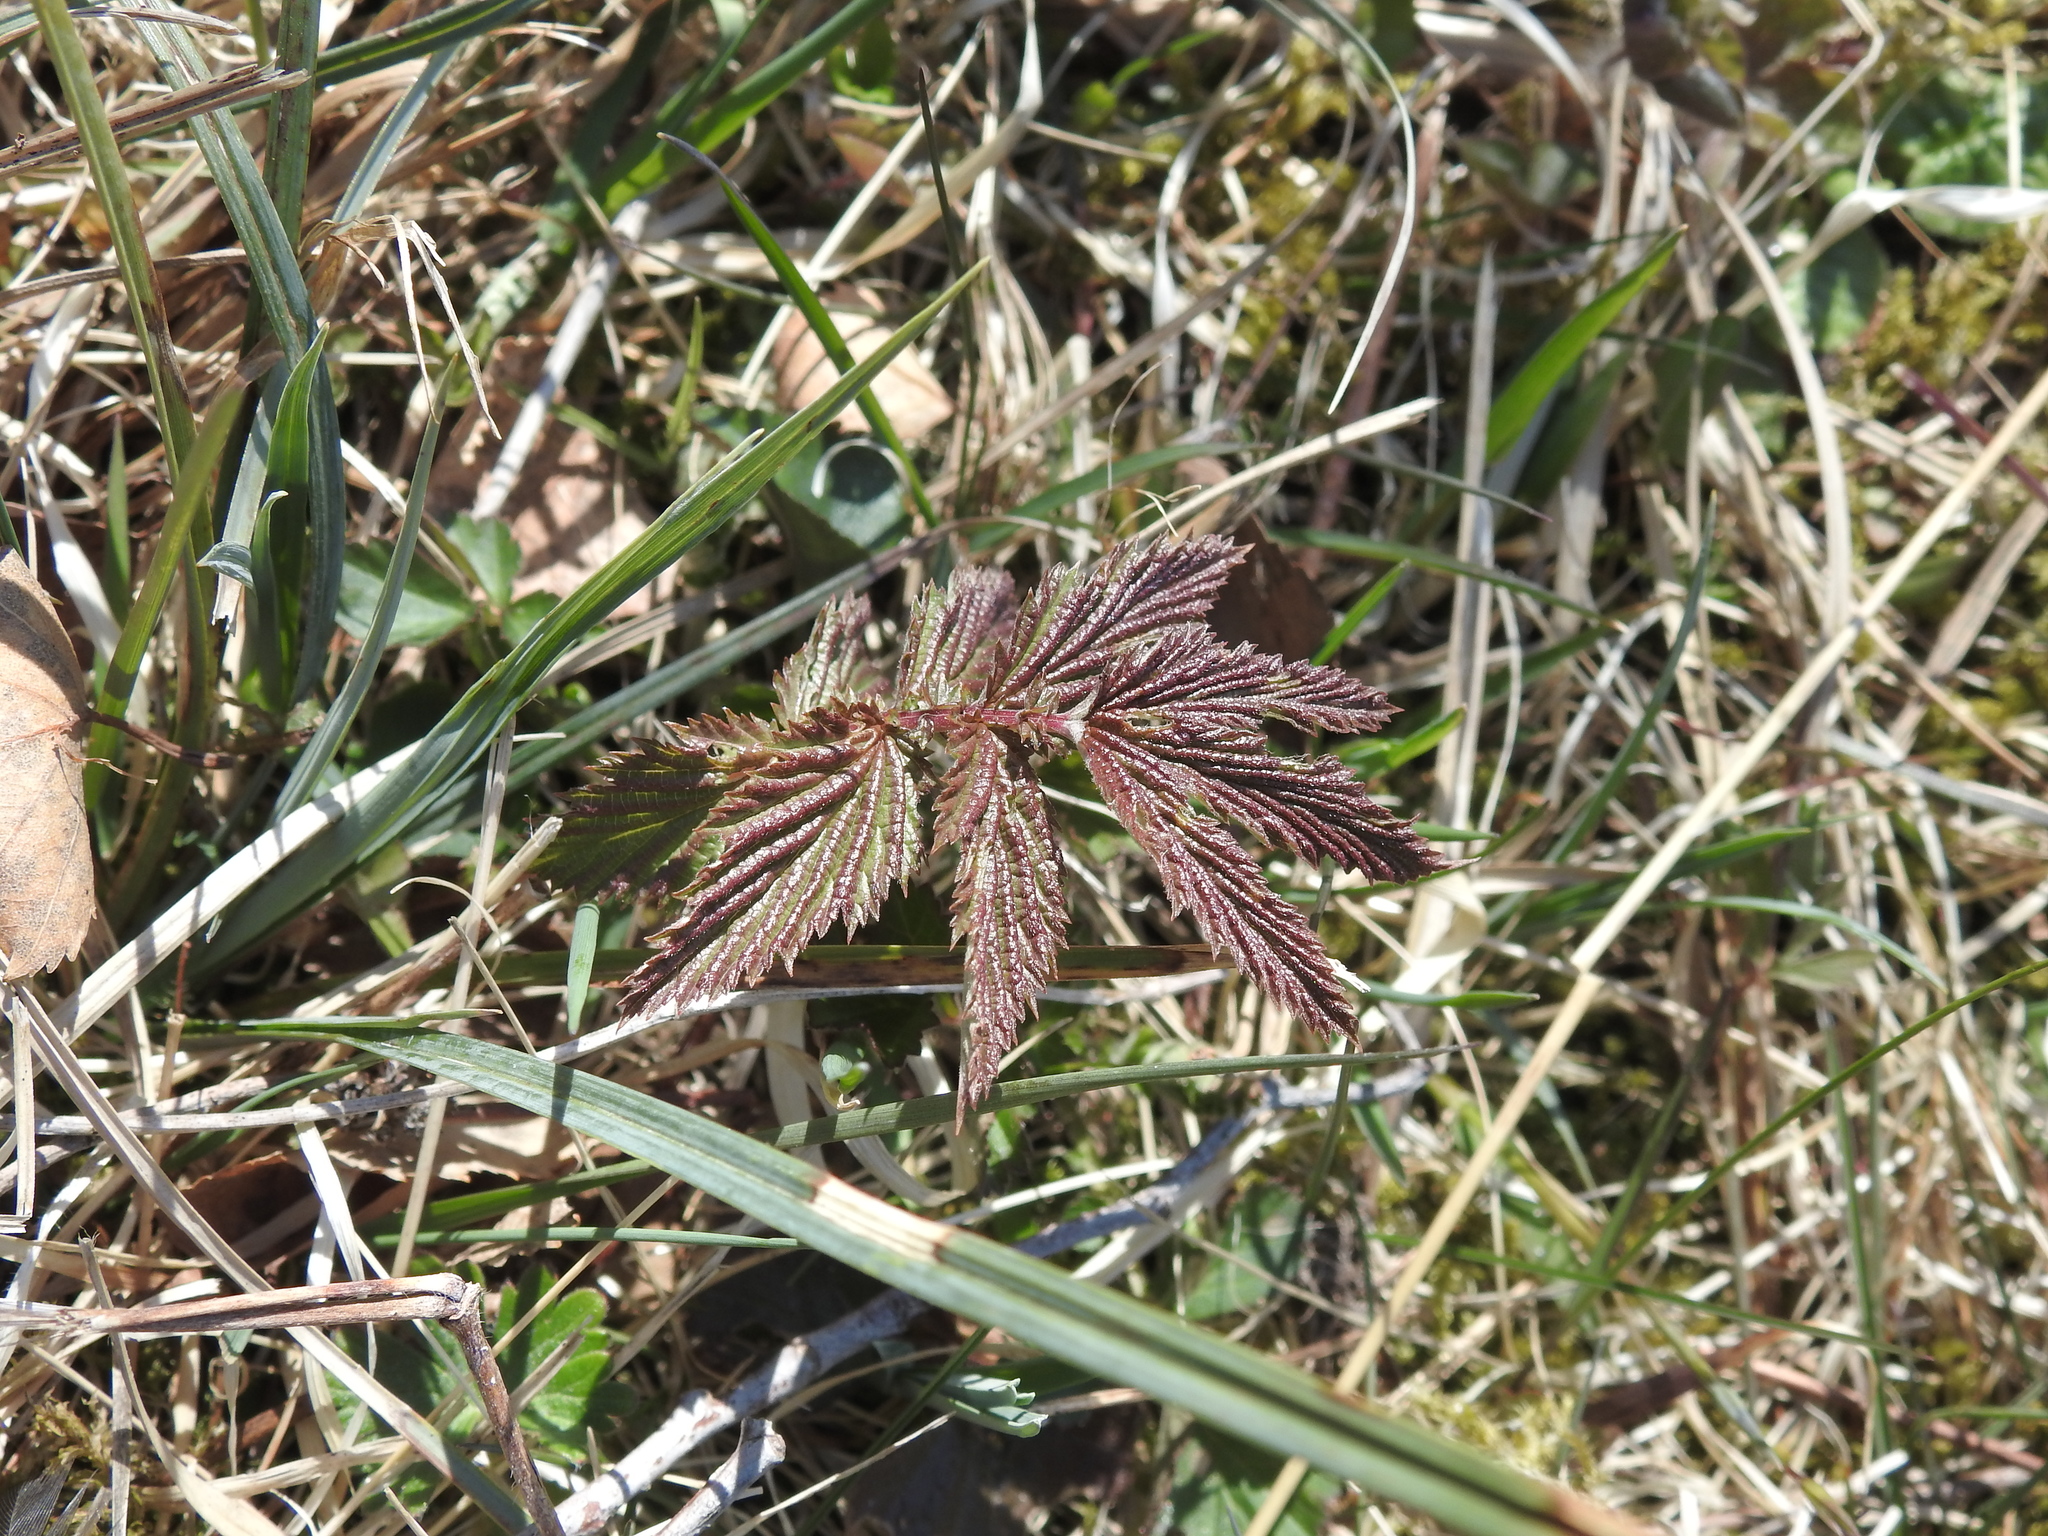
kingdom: Plantae
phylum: Tracheophyta
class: Magnoliopsida
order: Rosales
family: Rosaceae
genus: Filipendula
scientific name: Filipendula ulmaria
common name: Meadowsweet
